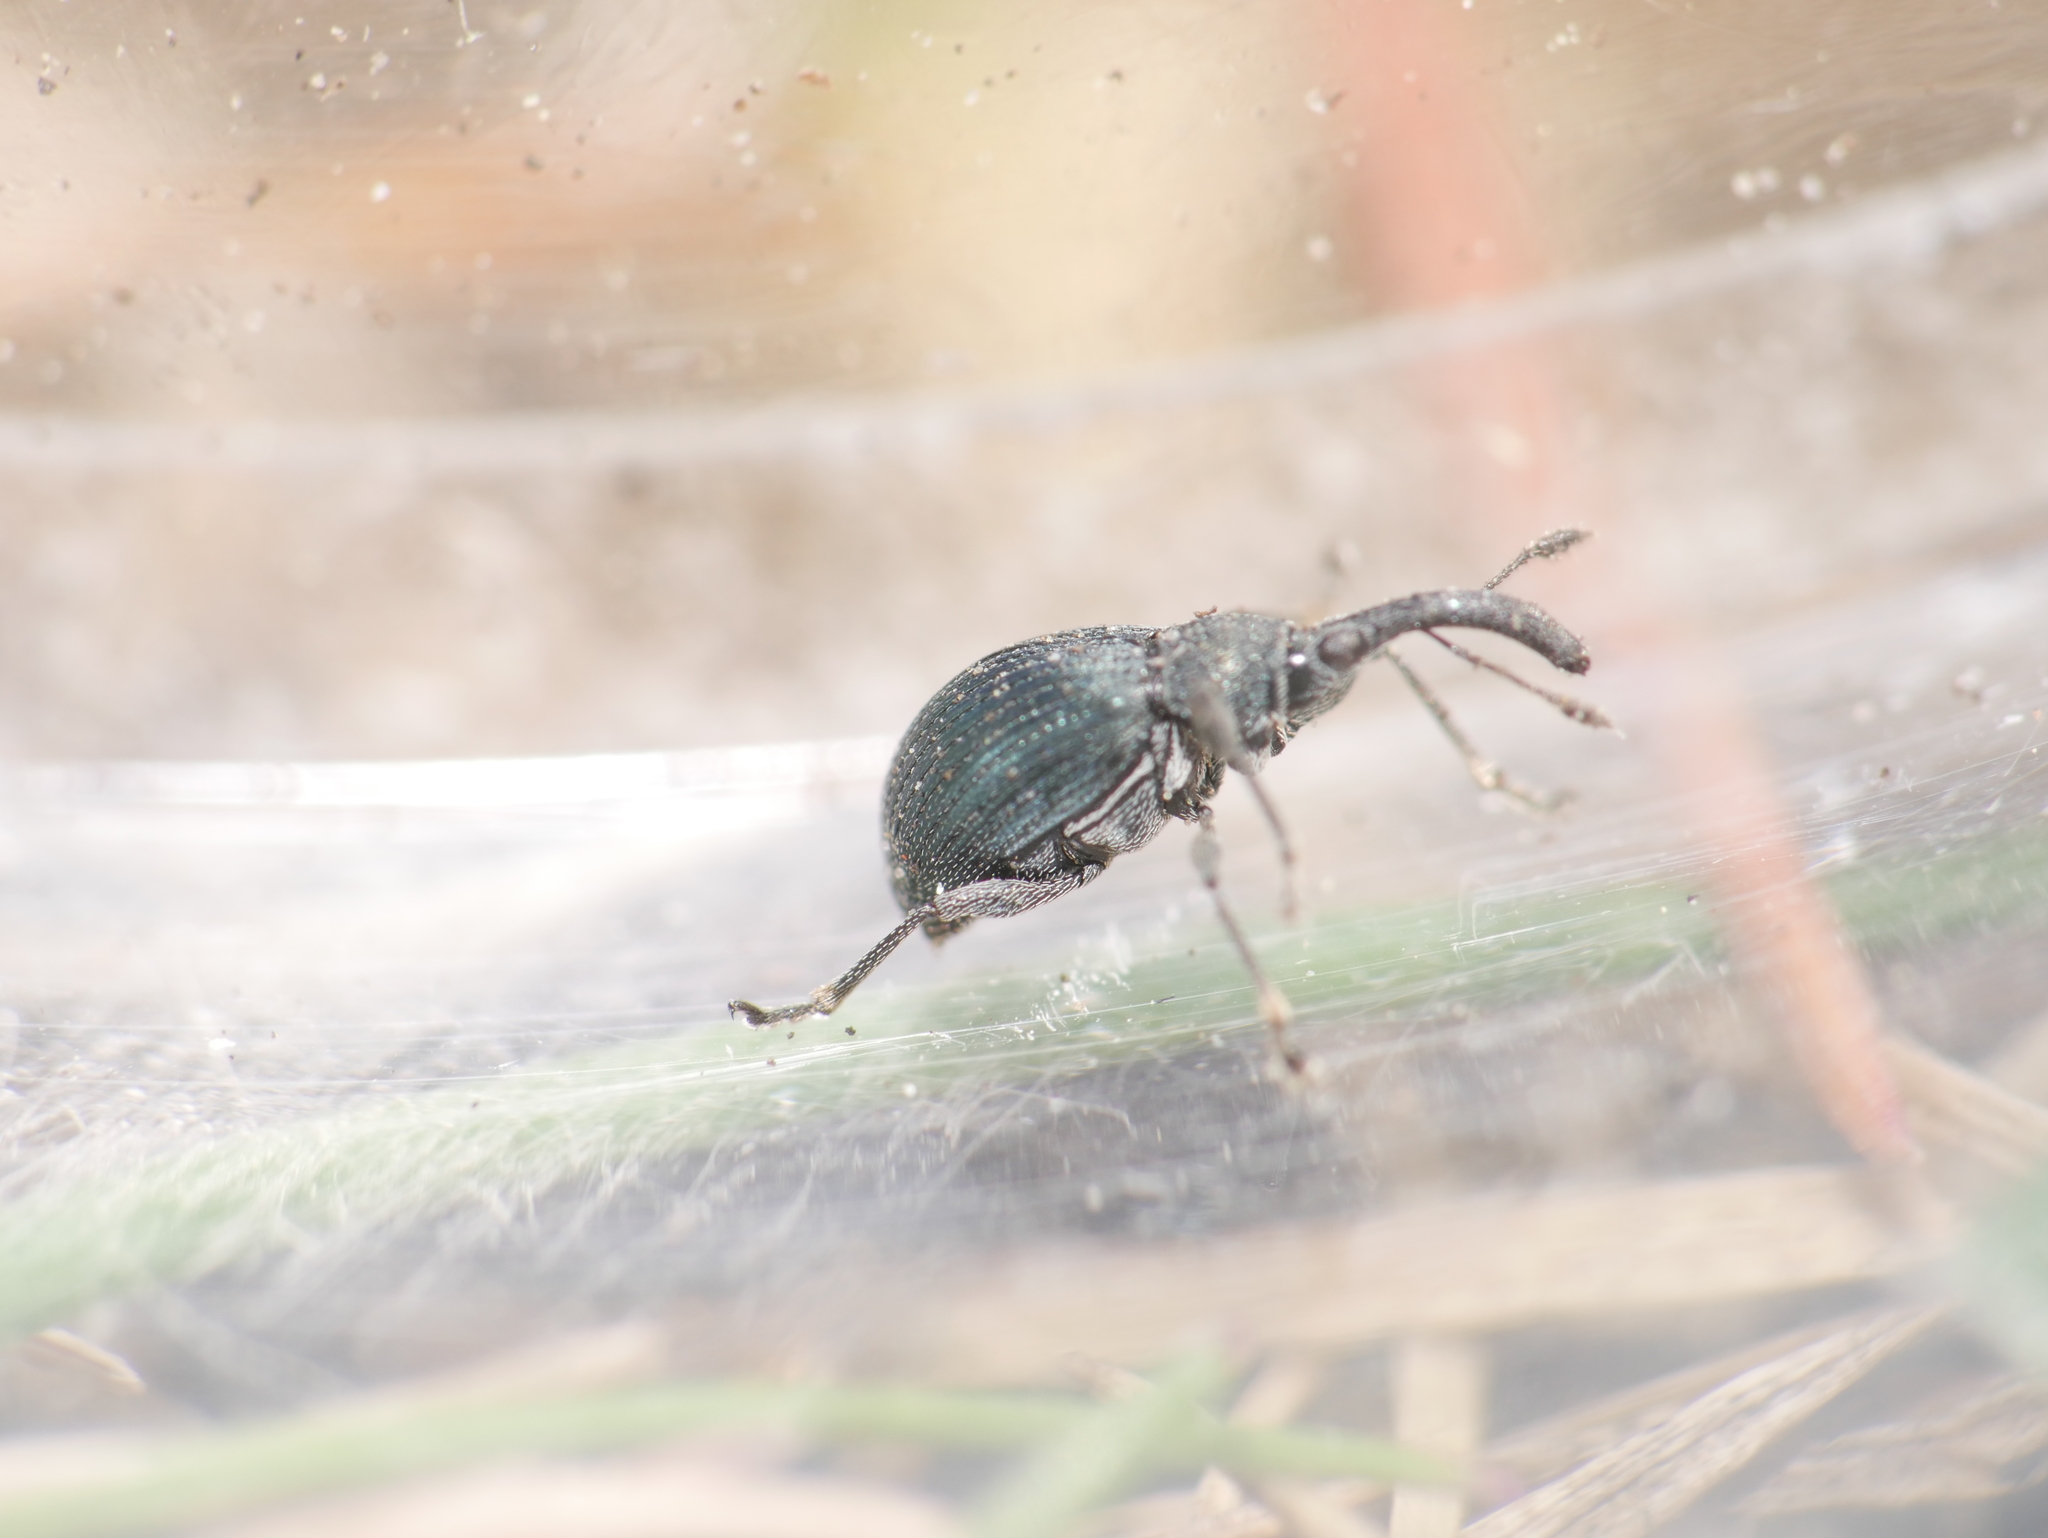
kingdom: Animalia
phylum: Arthropoda
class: Insecta
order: Coleoptera
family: Brentidae
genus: Alocentron
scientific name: Alocentron curvirostre
